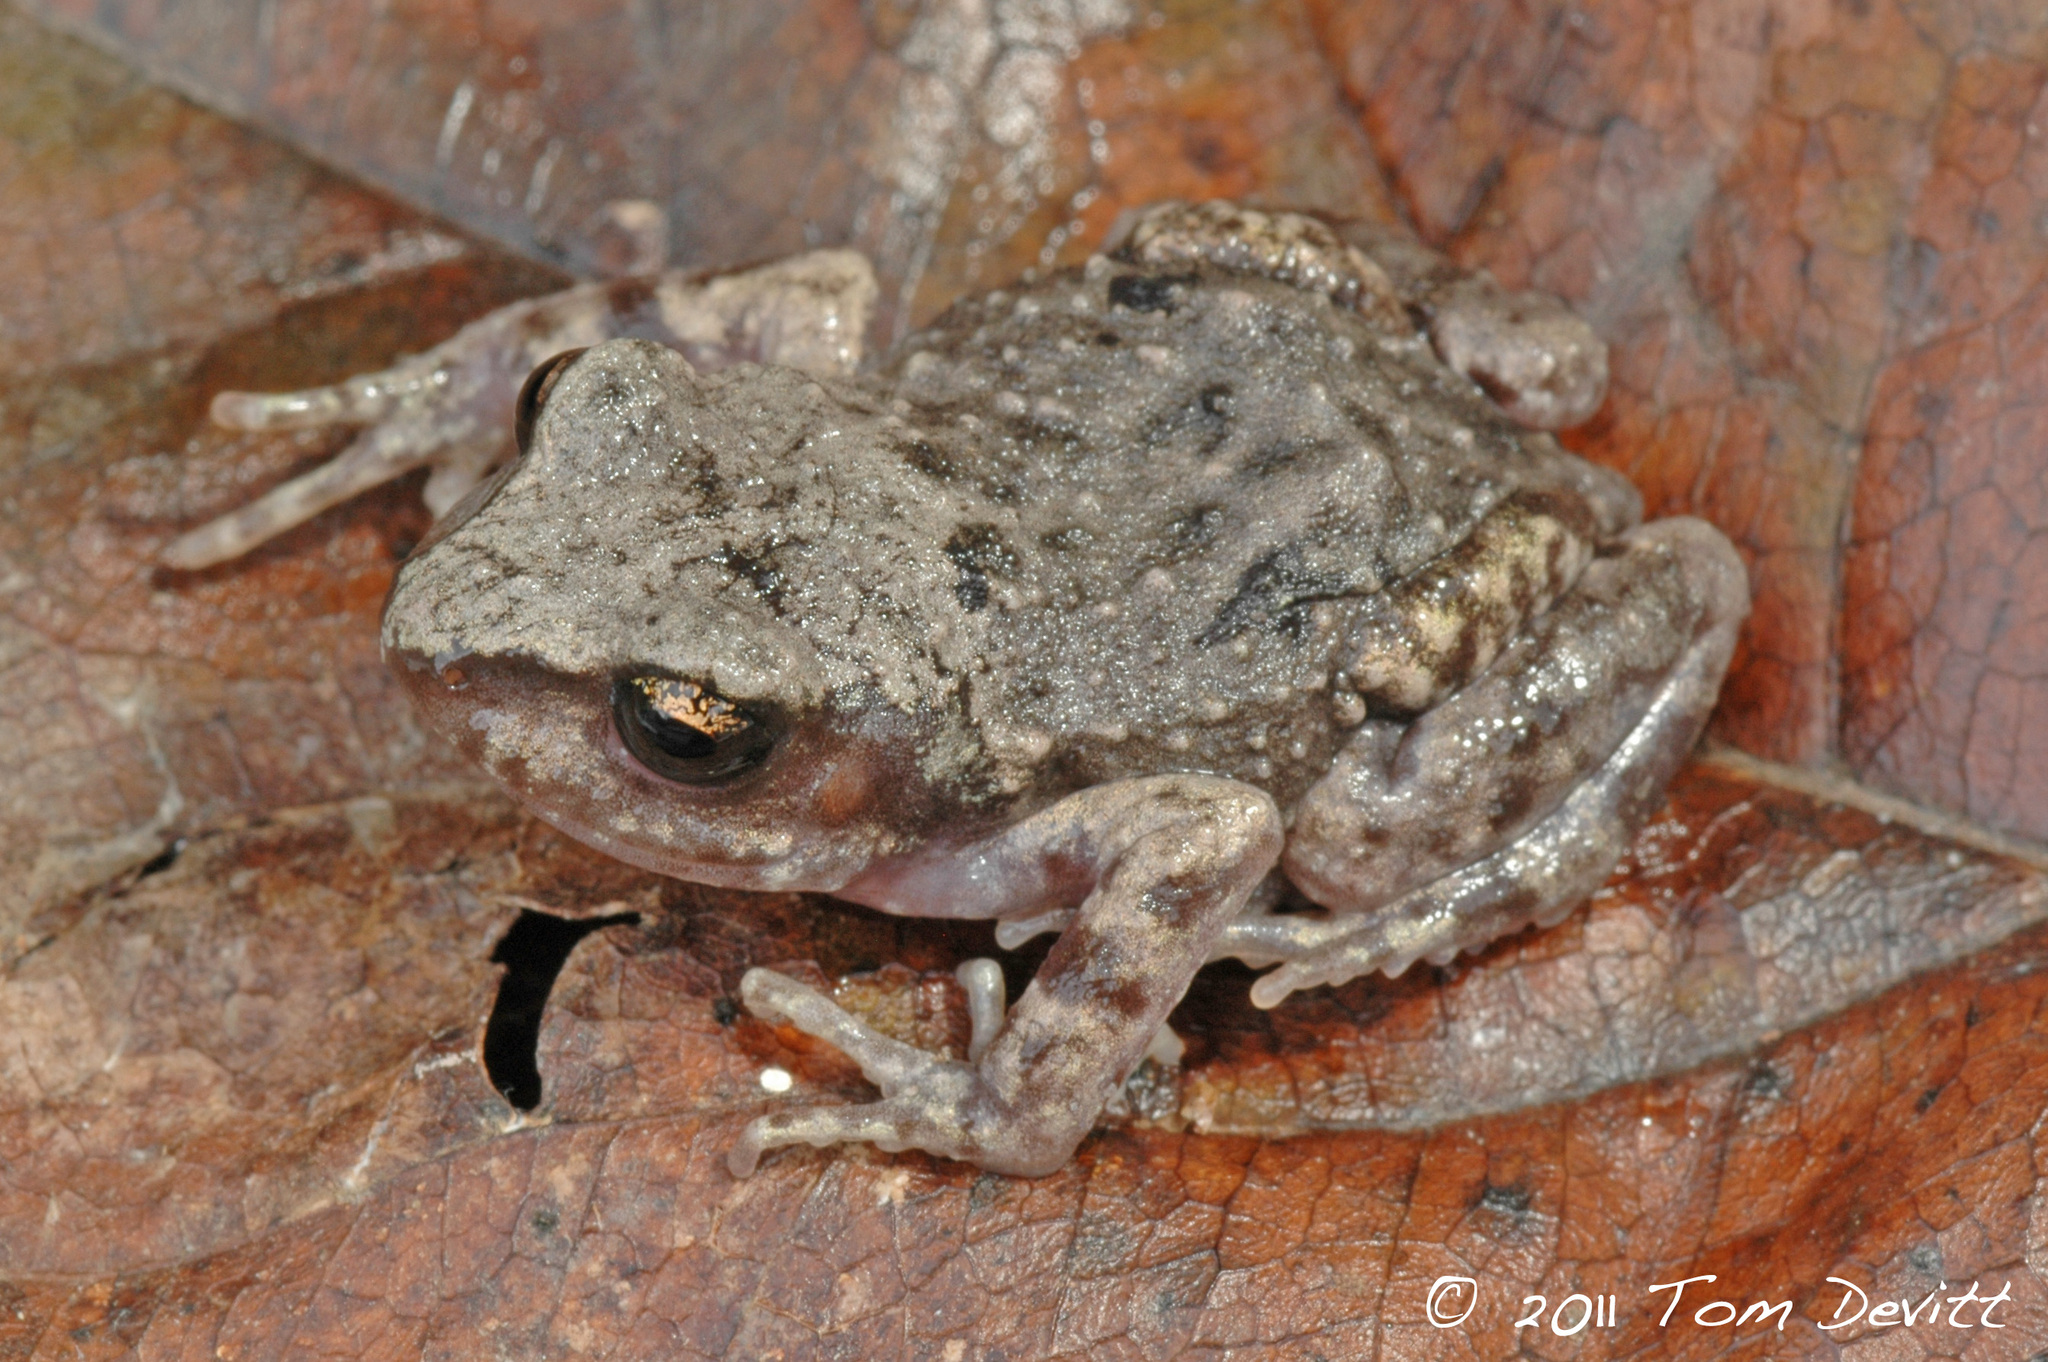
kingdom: Animalia
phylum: Chordata
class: Amphibia
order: Anura
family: Eleutherodactylidae
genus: Eleutherodactylus
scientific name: Eleutherodactylus grandis
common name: Great peeping frog
